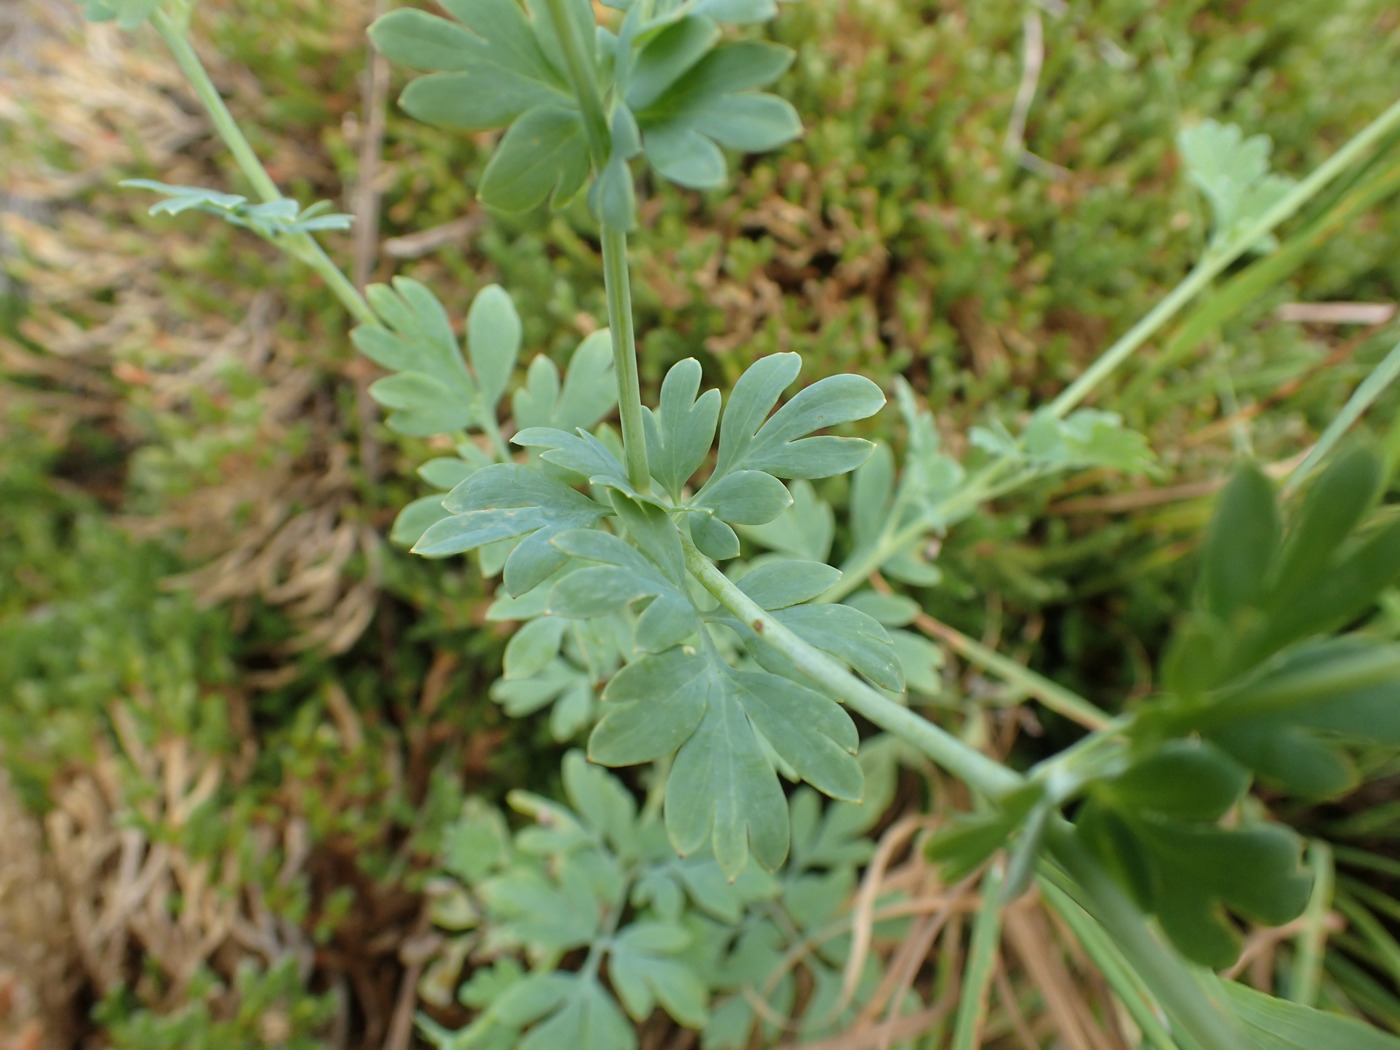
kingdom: Plantae
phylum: Tracheophyta
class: Magnoliopsida
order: Ranunculales
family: Papaveraceae
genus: Capnoides
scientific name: Capnoides sempervirens
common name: Rock harlequin
